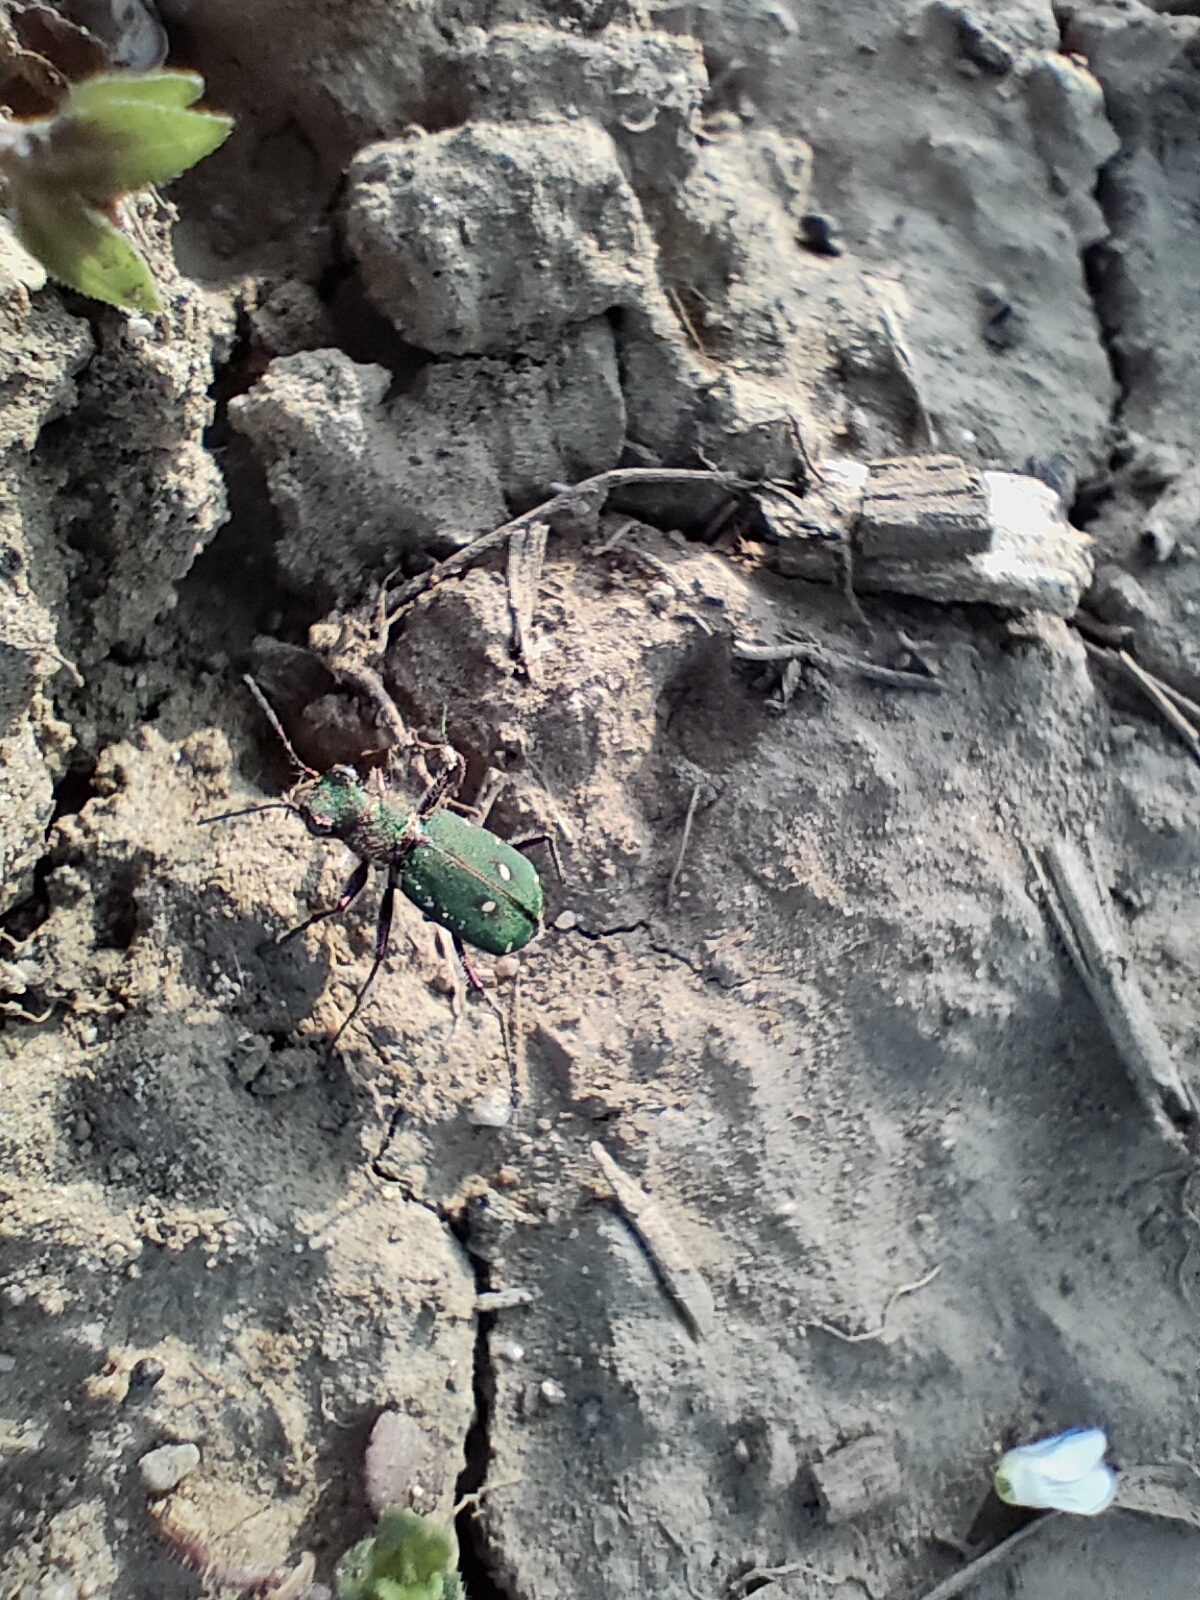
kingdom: Animalia
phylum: Arthropoda
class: Insecta
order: Coleoptera
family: Carabidae
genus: Cicindela
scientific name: Cicindela campestris
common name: Common tiger beetle
